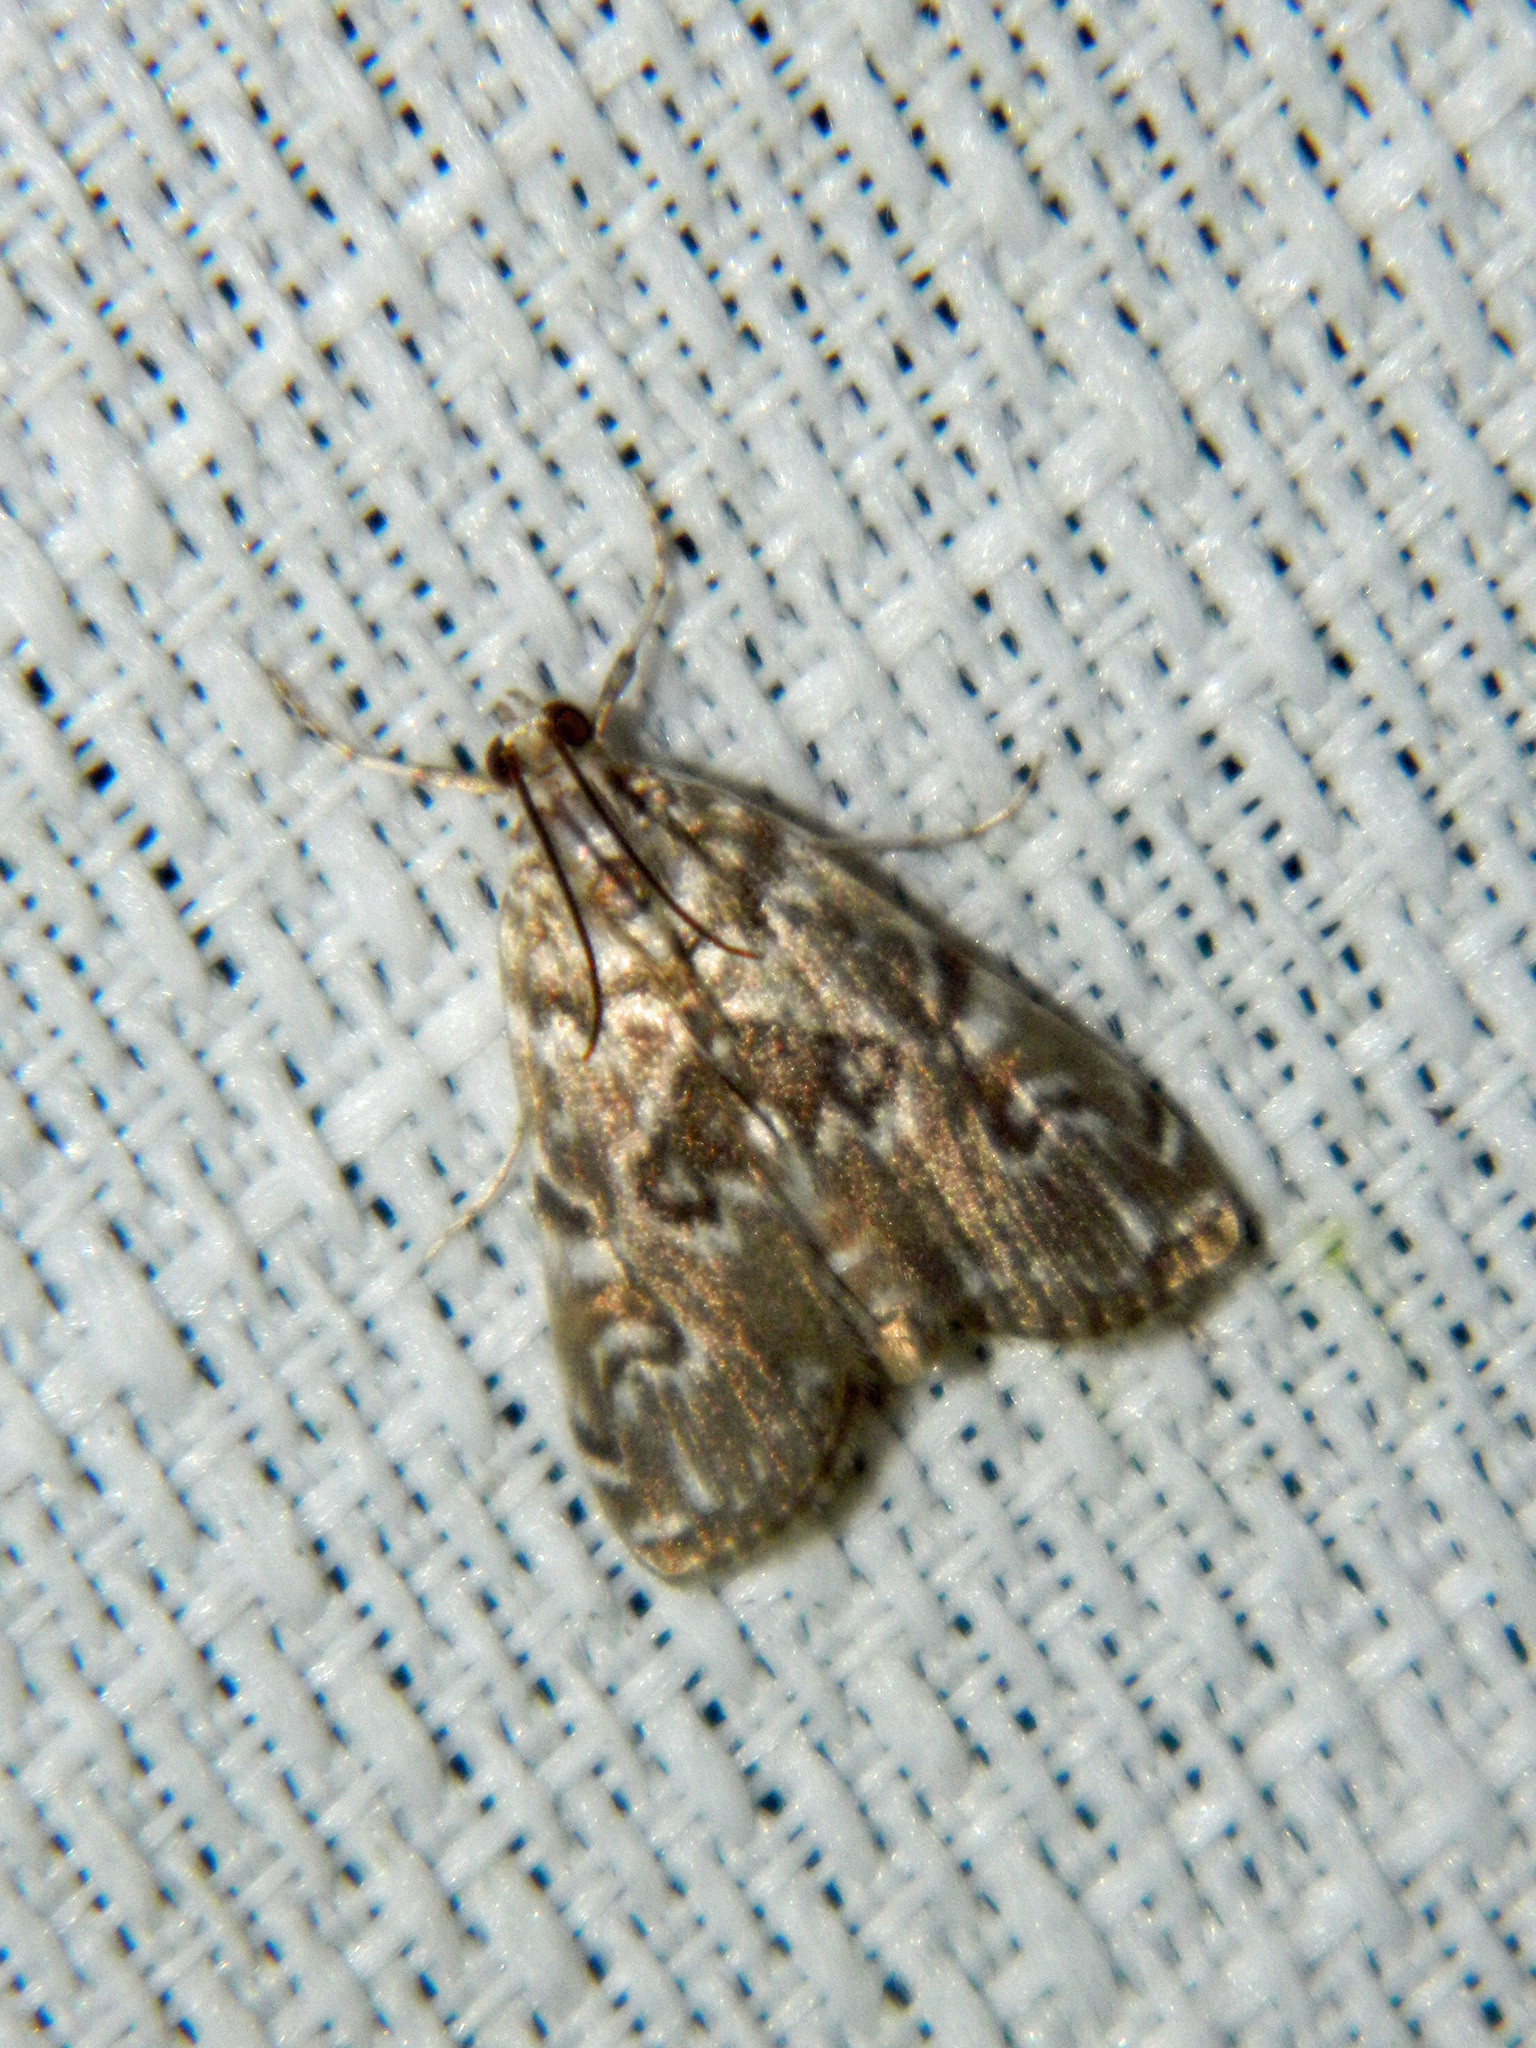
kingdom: Animalia
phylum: Arthropoda
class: Insecta
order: Lepidoptera
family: Crambidae
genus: Elophila
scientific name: Elophila gyralis
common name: Waterlily borer moth
